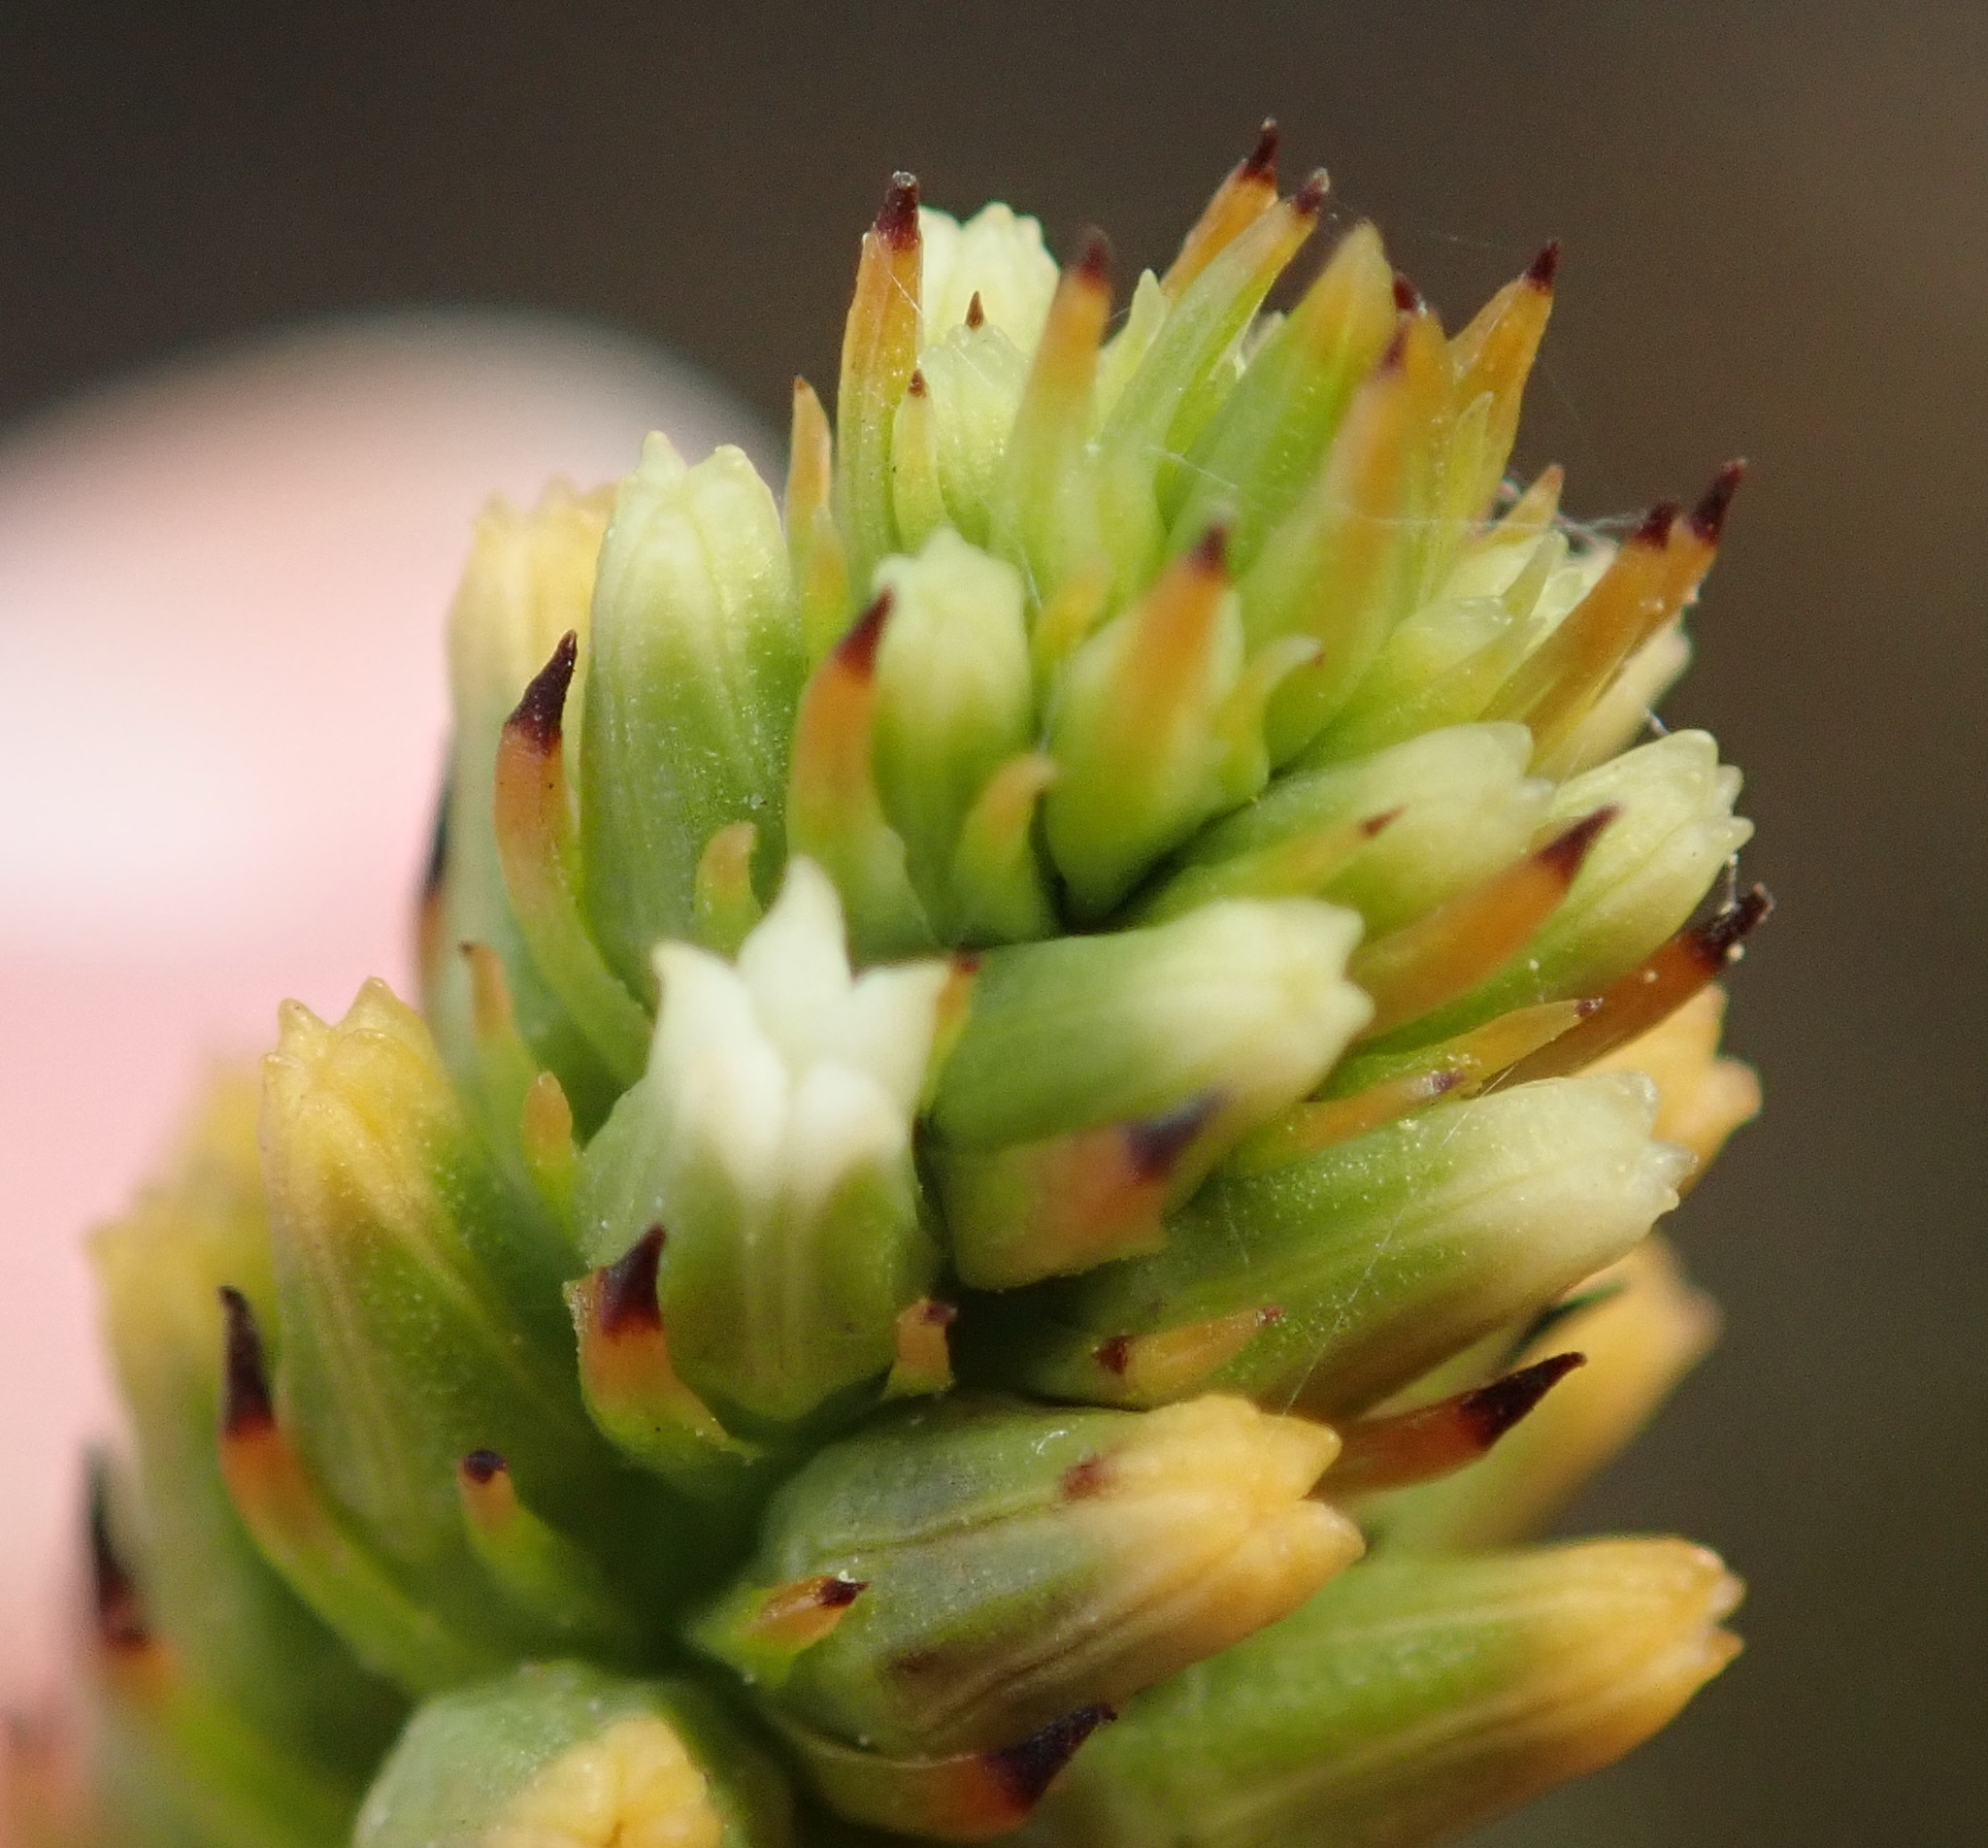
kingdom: Plantae
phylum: Tracheophyta
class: Magnoliopsida
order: Santalales
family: Thesiaceae
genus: Thesium
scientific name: Thesium aggregatum
